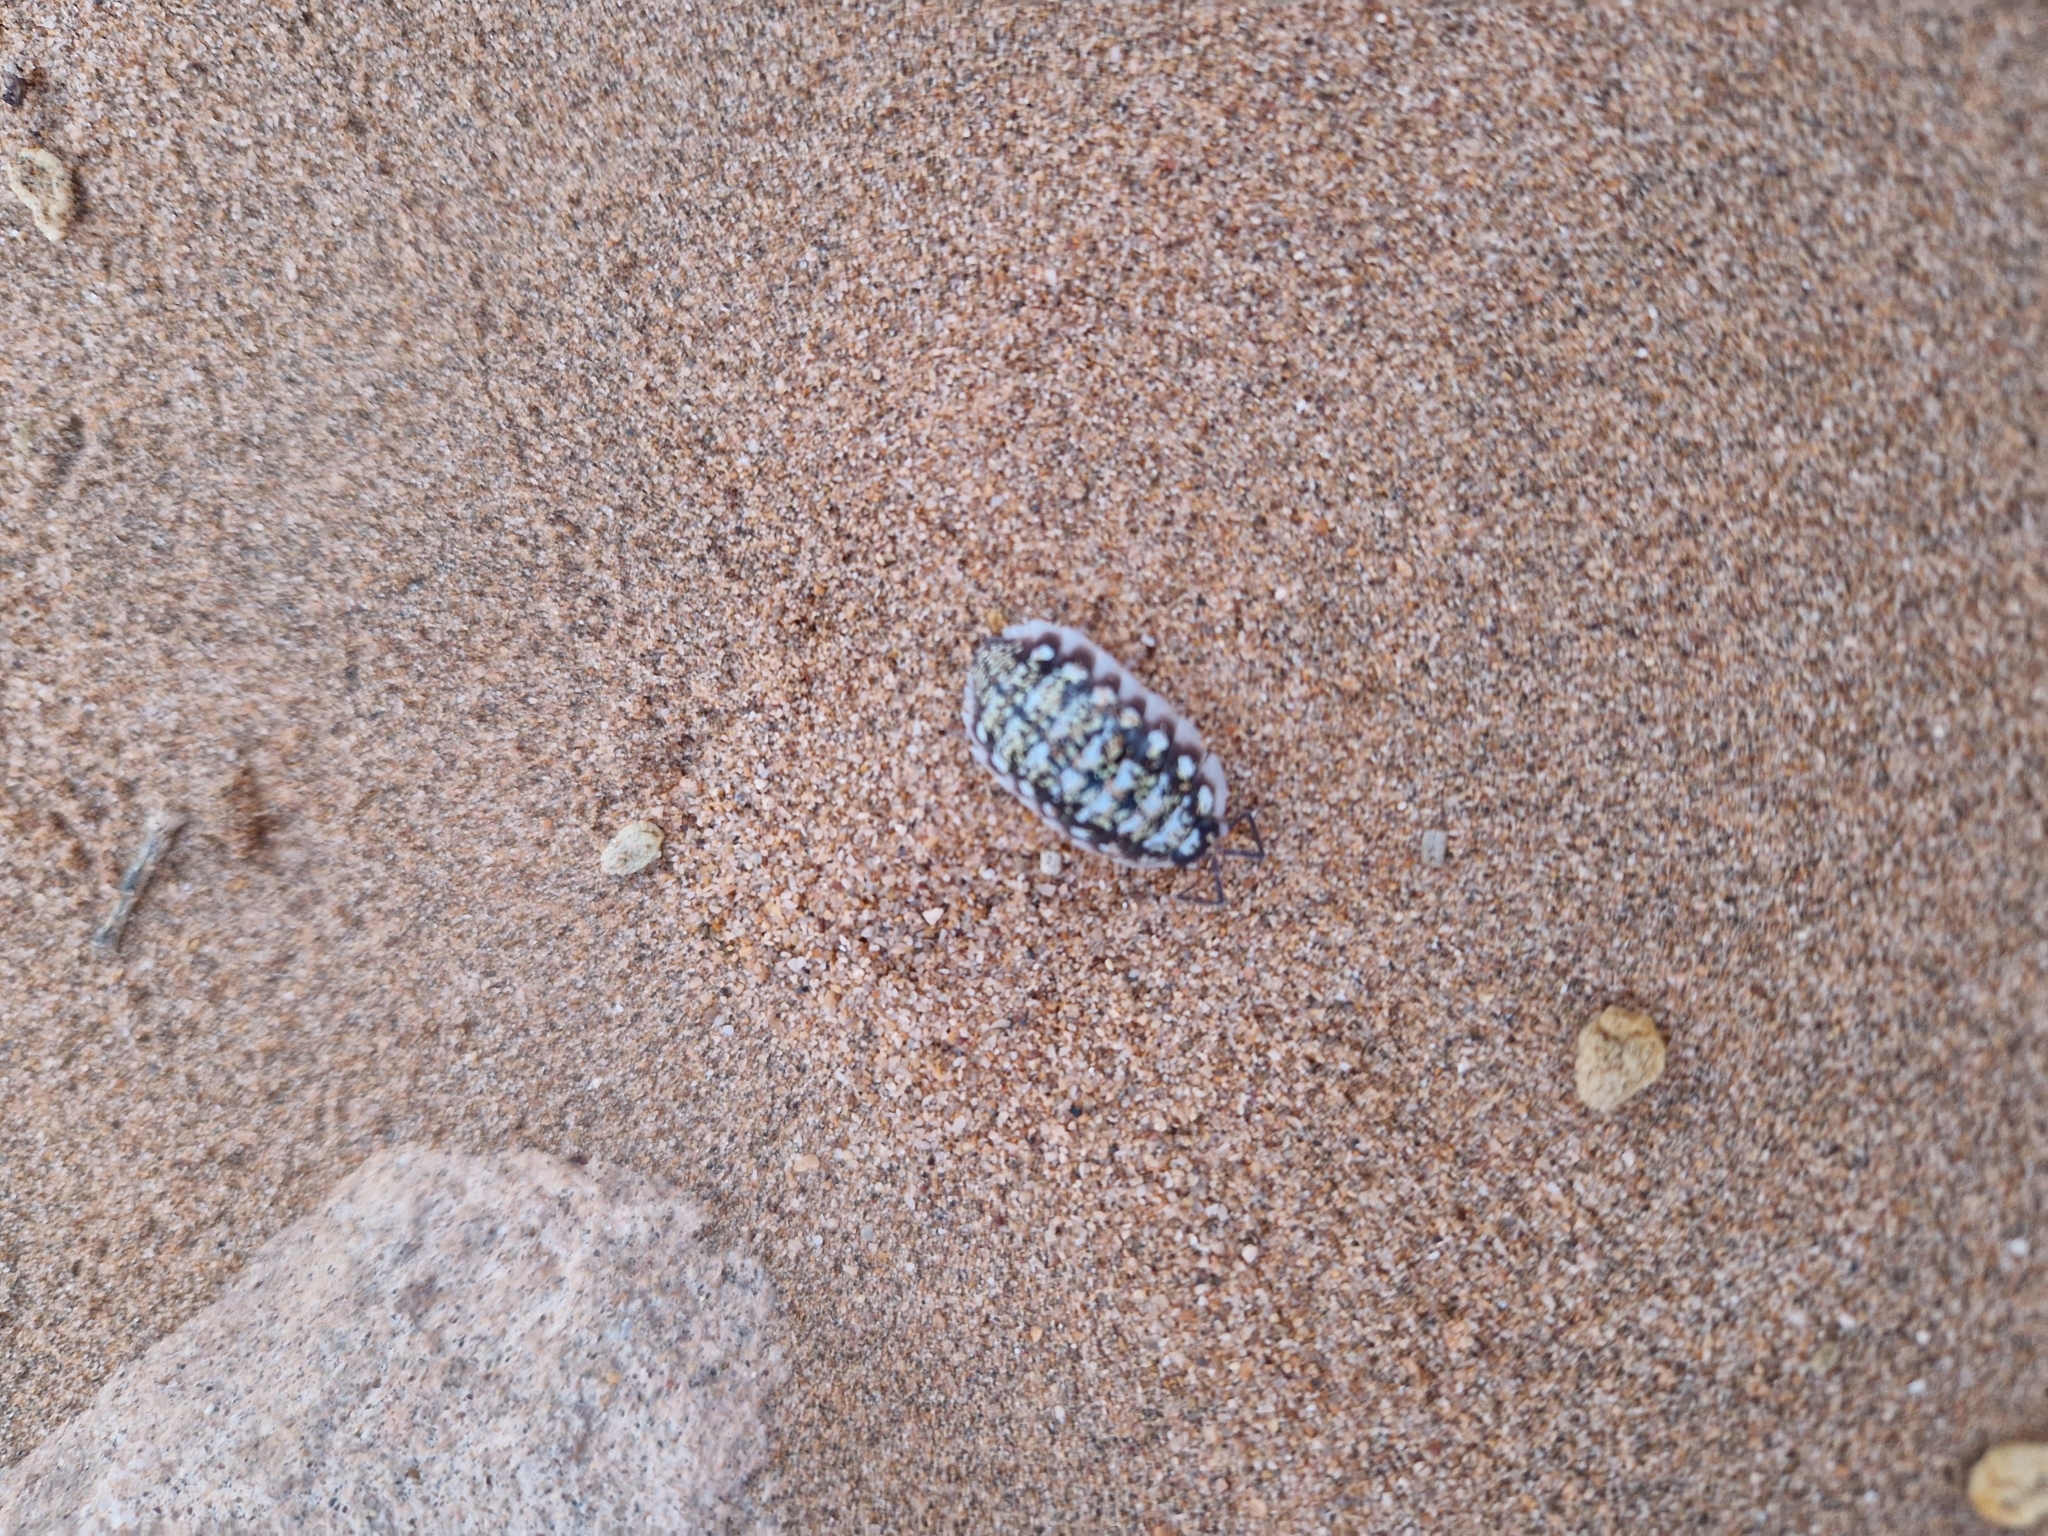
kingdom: Animalia
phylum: Arthropoda
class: Malacostraca
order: Isopoda
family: Porcellionidae
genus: Porcellio
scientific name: Porcellio saharaiensis
